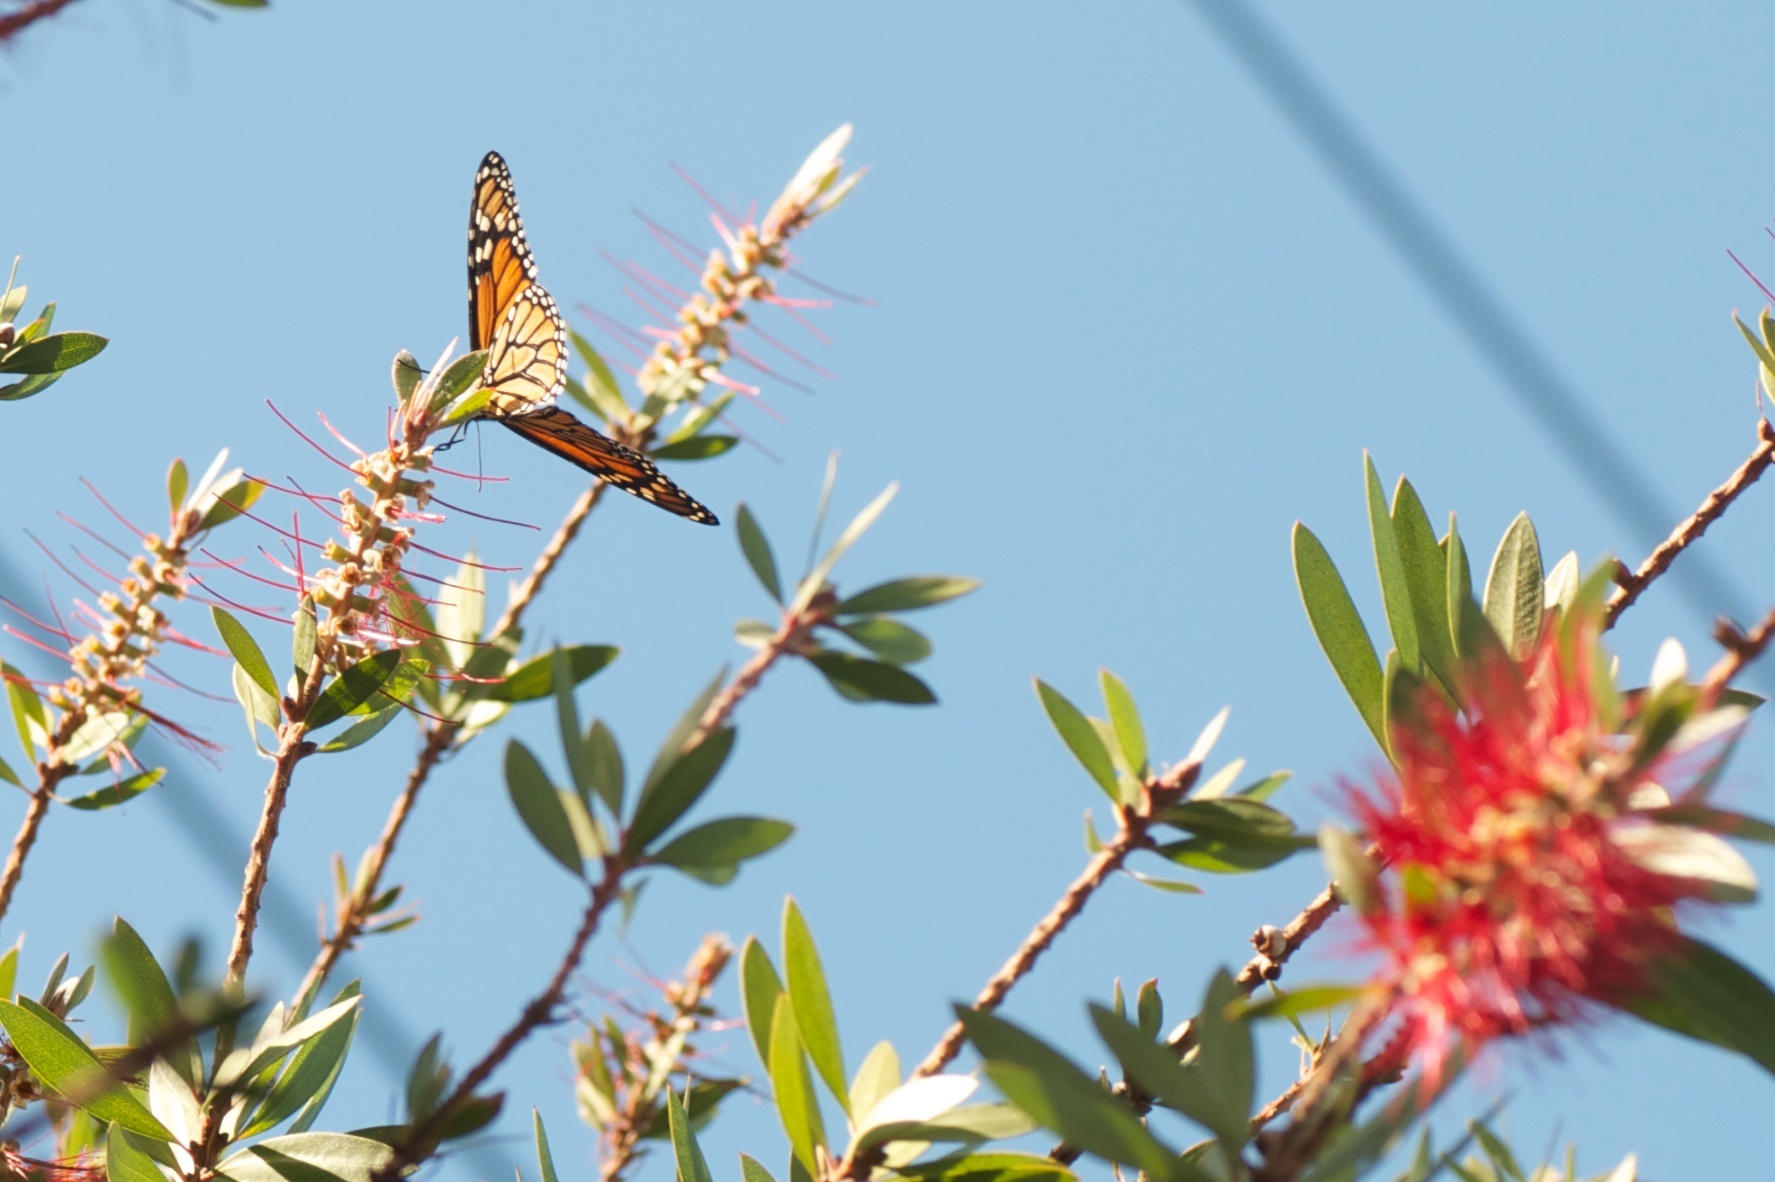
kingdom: Animalia
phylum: Arthropoda
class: Insecta
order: Lepidoptera
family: Nymphalidae
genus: Danaus
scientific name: Danaus plexippus
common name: Monarch
